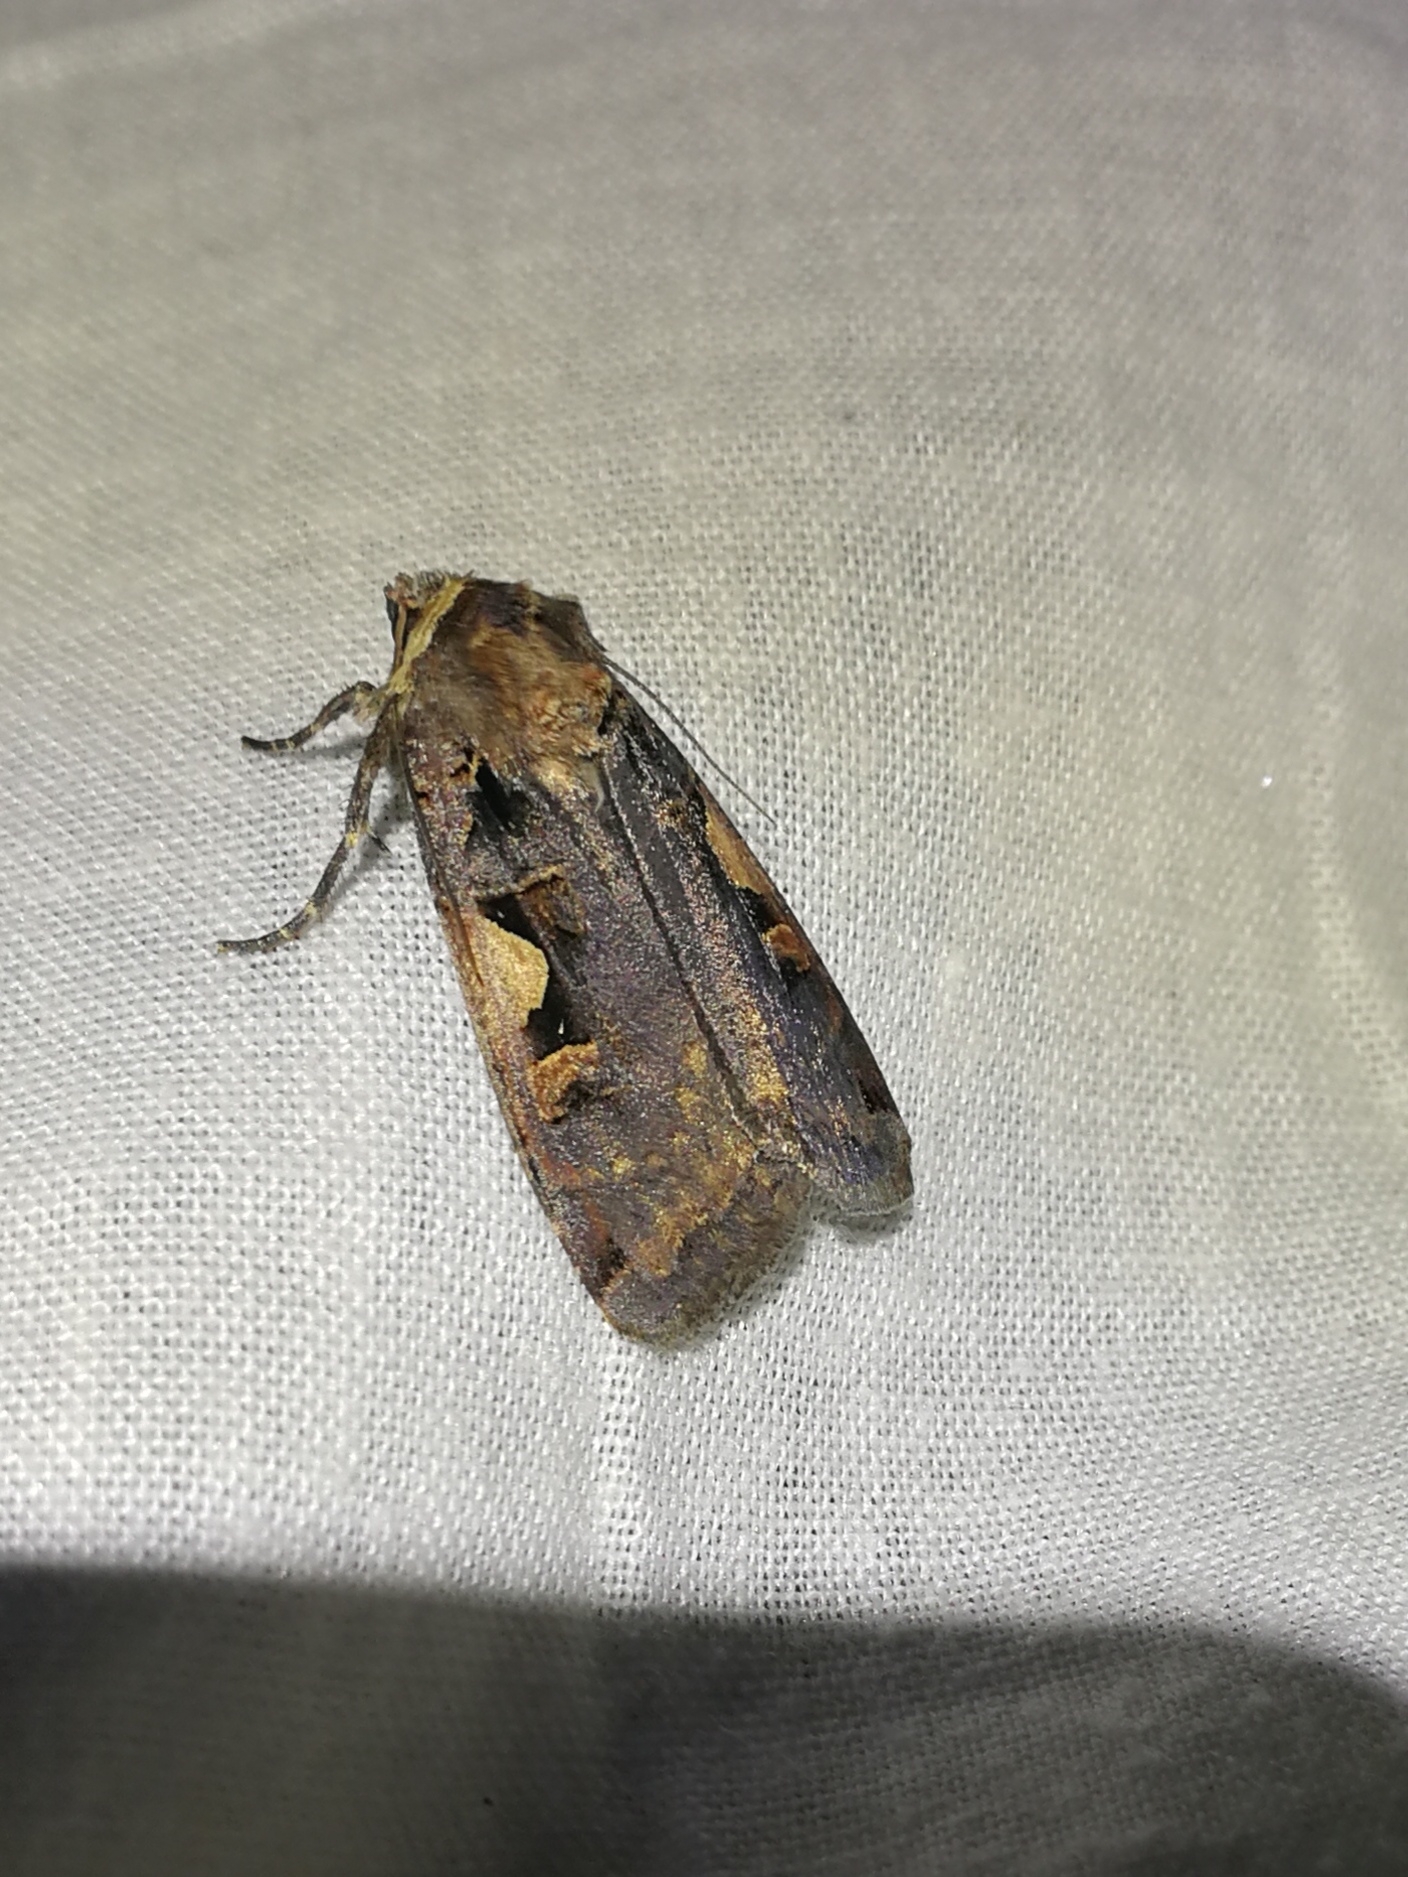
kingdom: Animalia
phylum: Arthropoda
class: Insecta
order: Lepidoptera
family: Noctuidae
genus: Xestia
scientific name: Xestia c-nigrum
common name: Setaceous hebrew character
